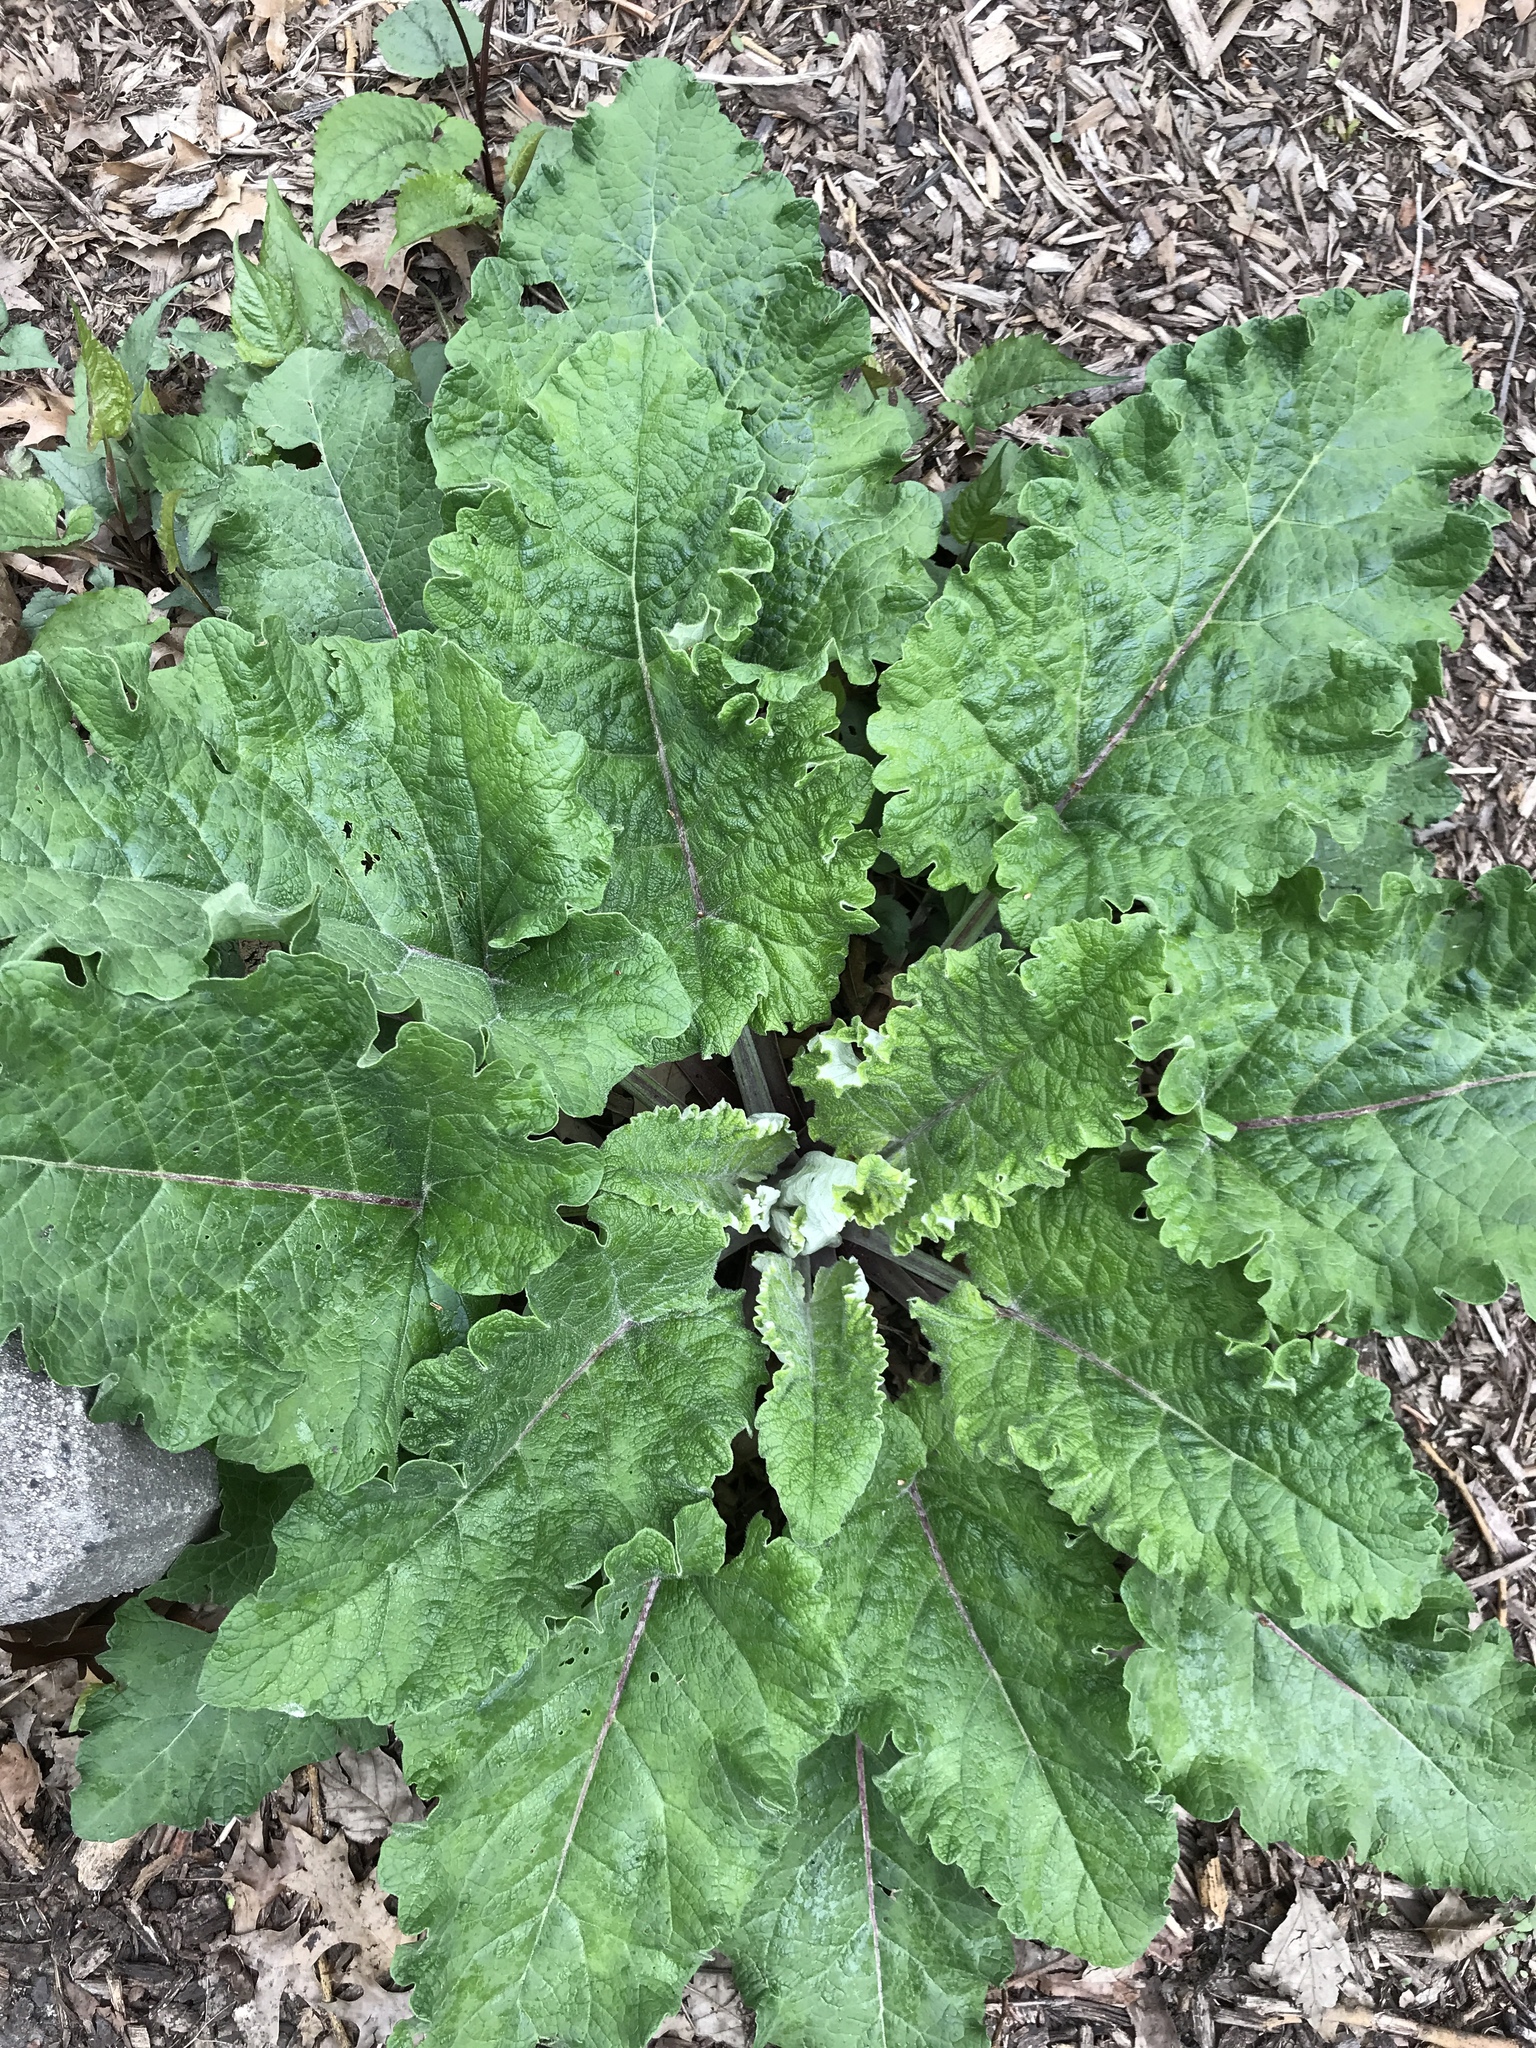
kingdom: Plantae
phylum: Tracheophyta
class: Magnoliopsida
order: Asterales
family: Asteraceae
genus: Arctium
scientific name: Arctium
